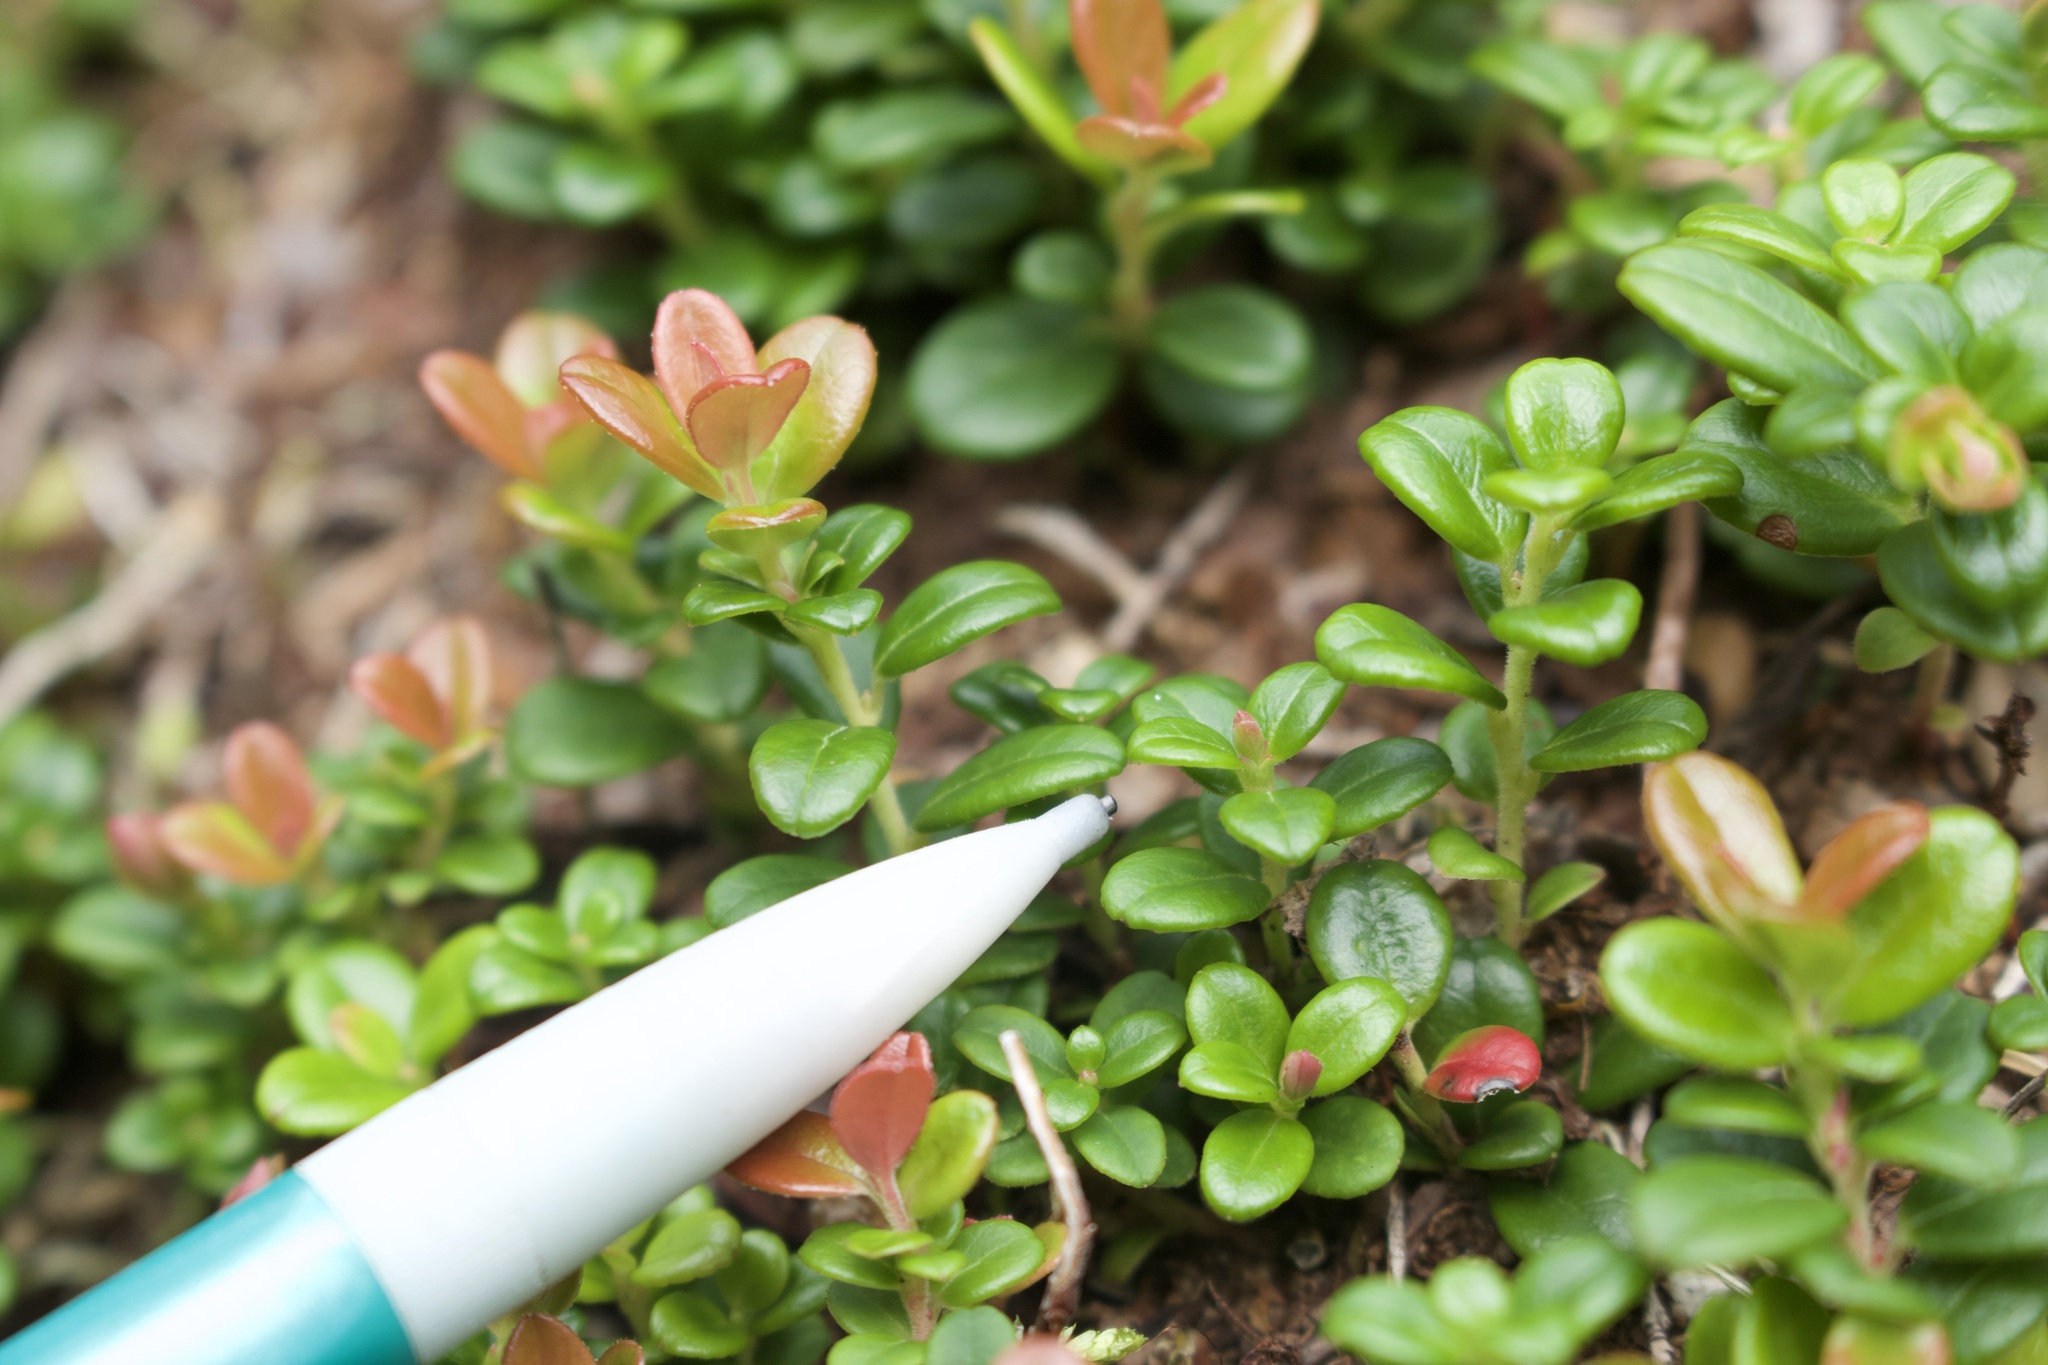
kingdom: Plantae
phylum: Tracheophyta
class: Magnoliopsida
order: Ericales
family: Ericaceae
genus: Vaccinium
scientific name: Vaccinium vitis-idaea
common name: Cowberry
